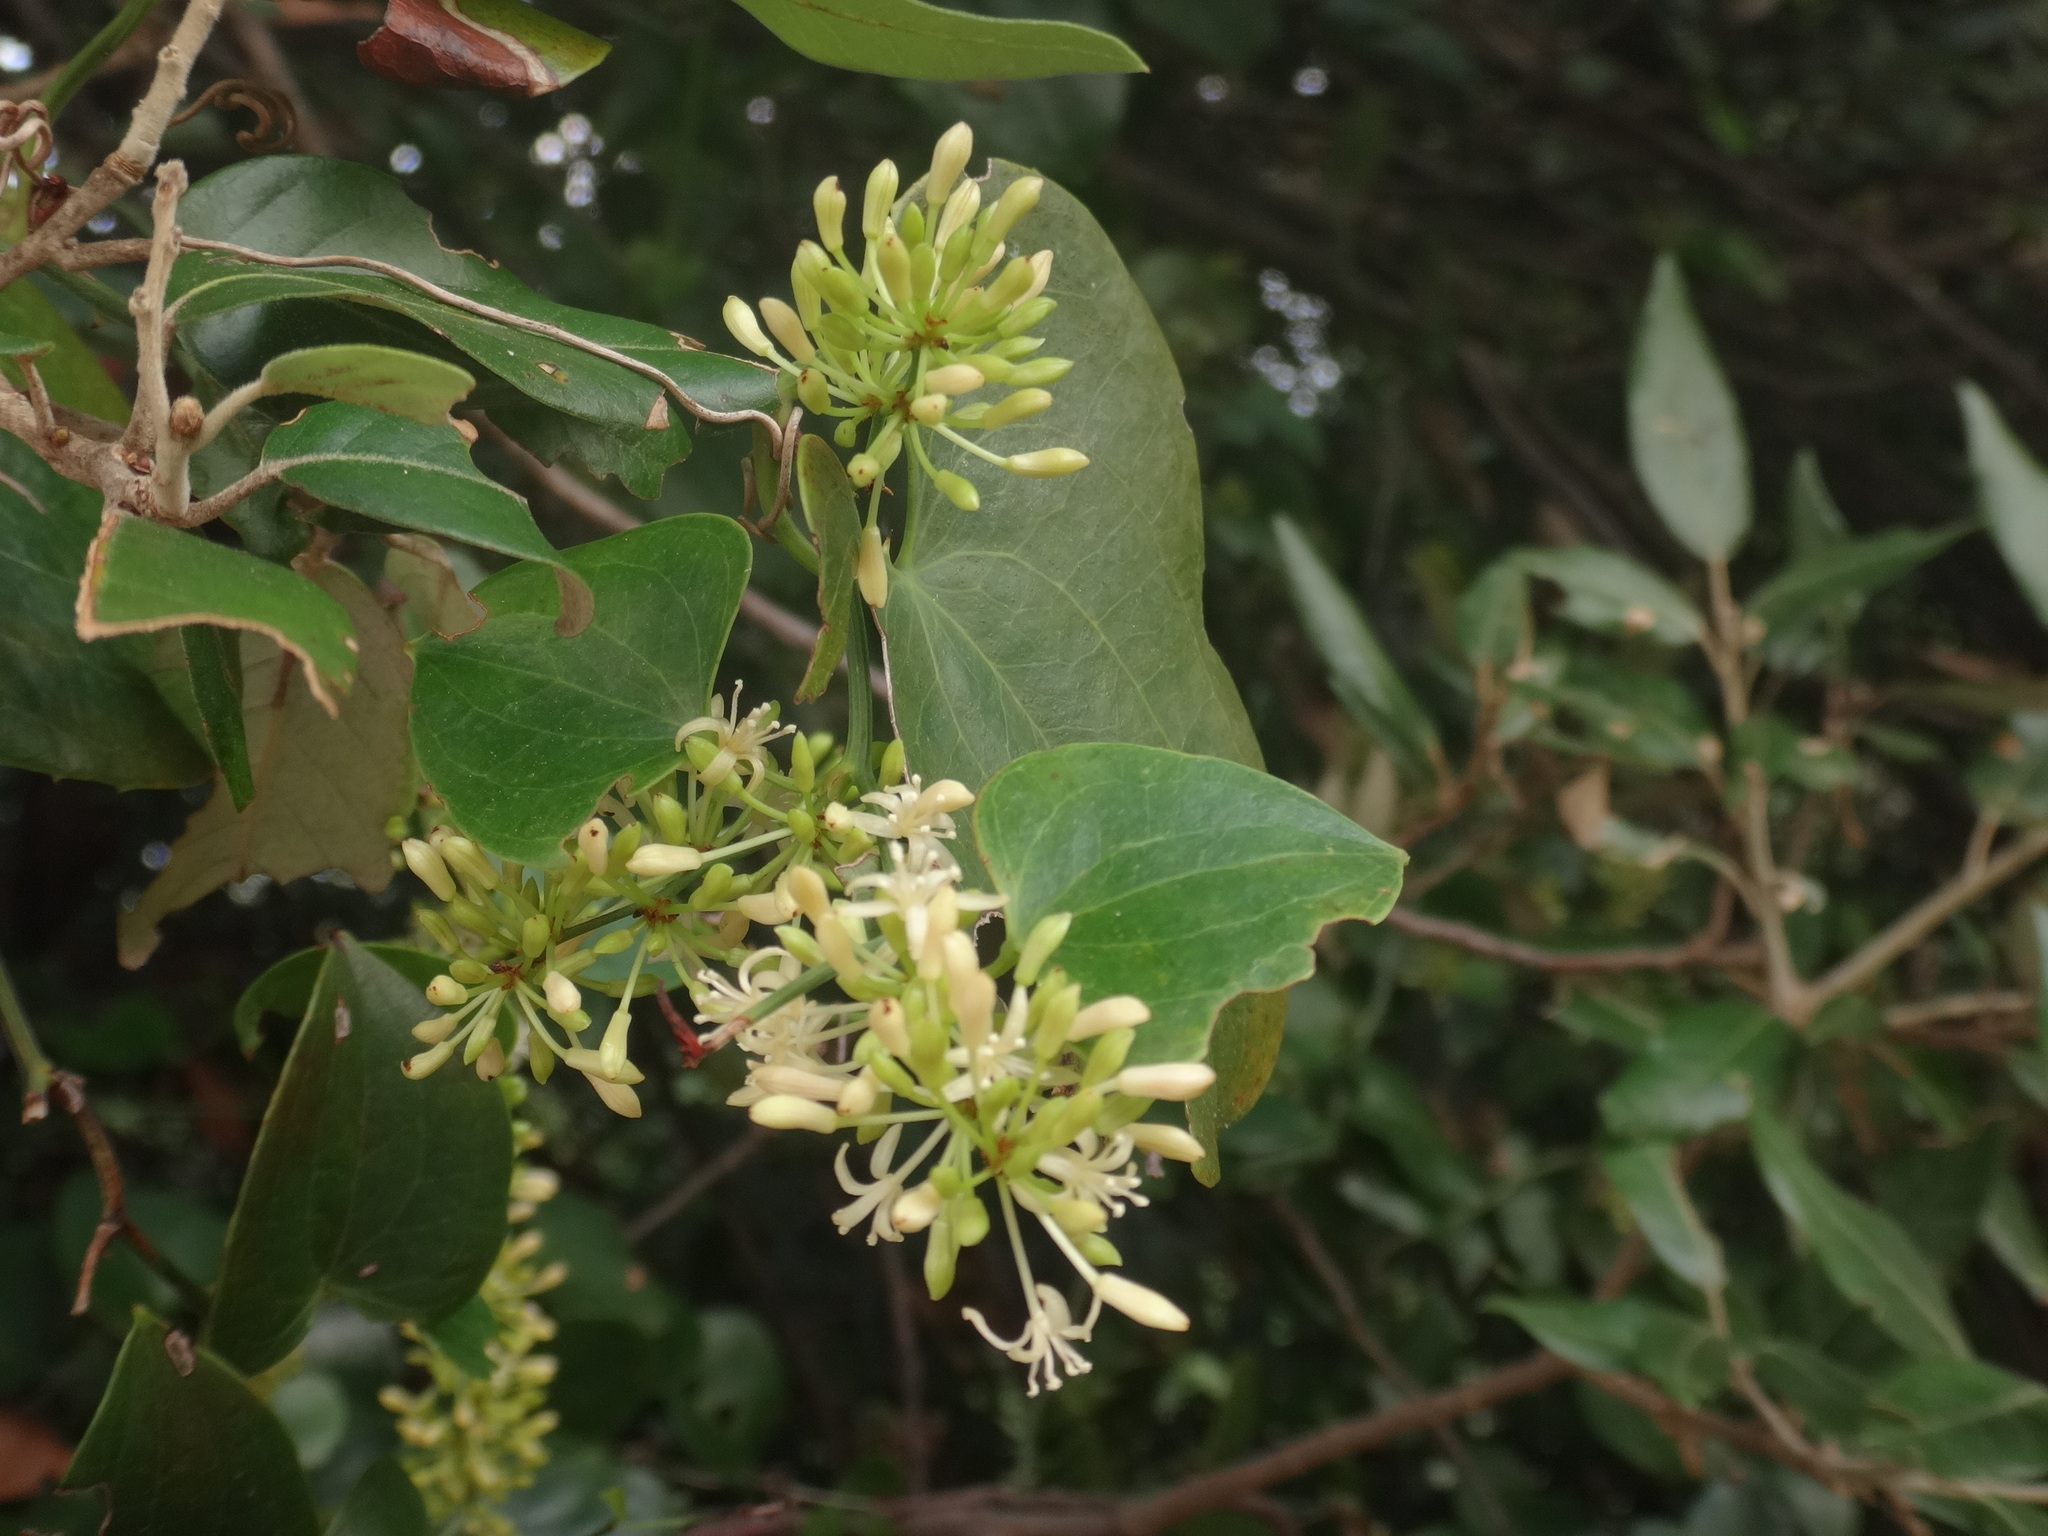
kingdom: Plantae
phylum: Tracheophyta
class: Liliopsida
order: Liliales
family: Smilacaceae
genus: Smilax
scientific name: Smilax aspera
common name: Common smilax
